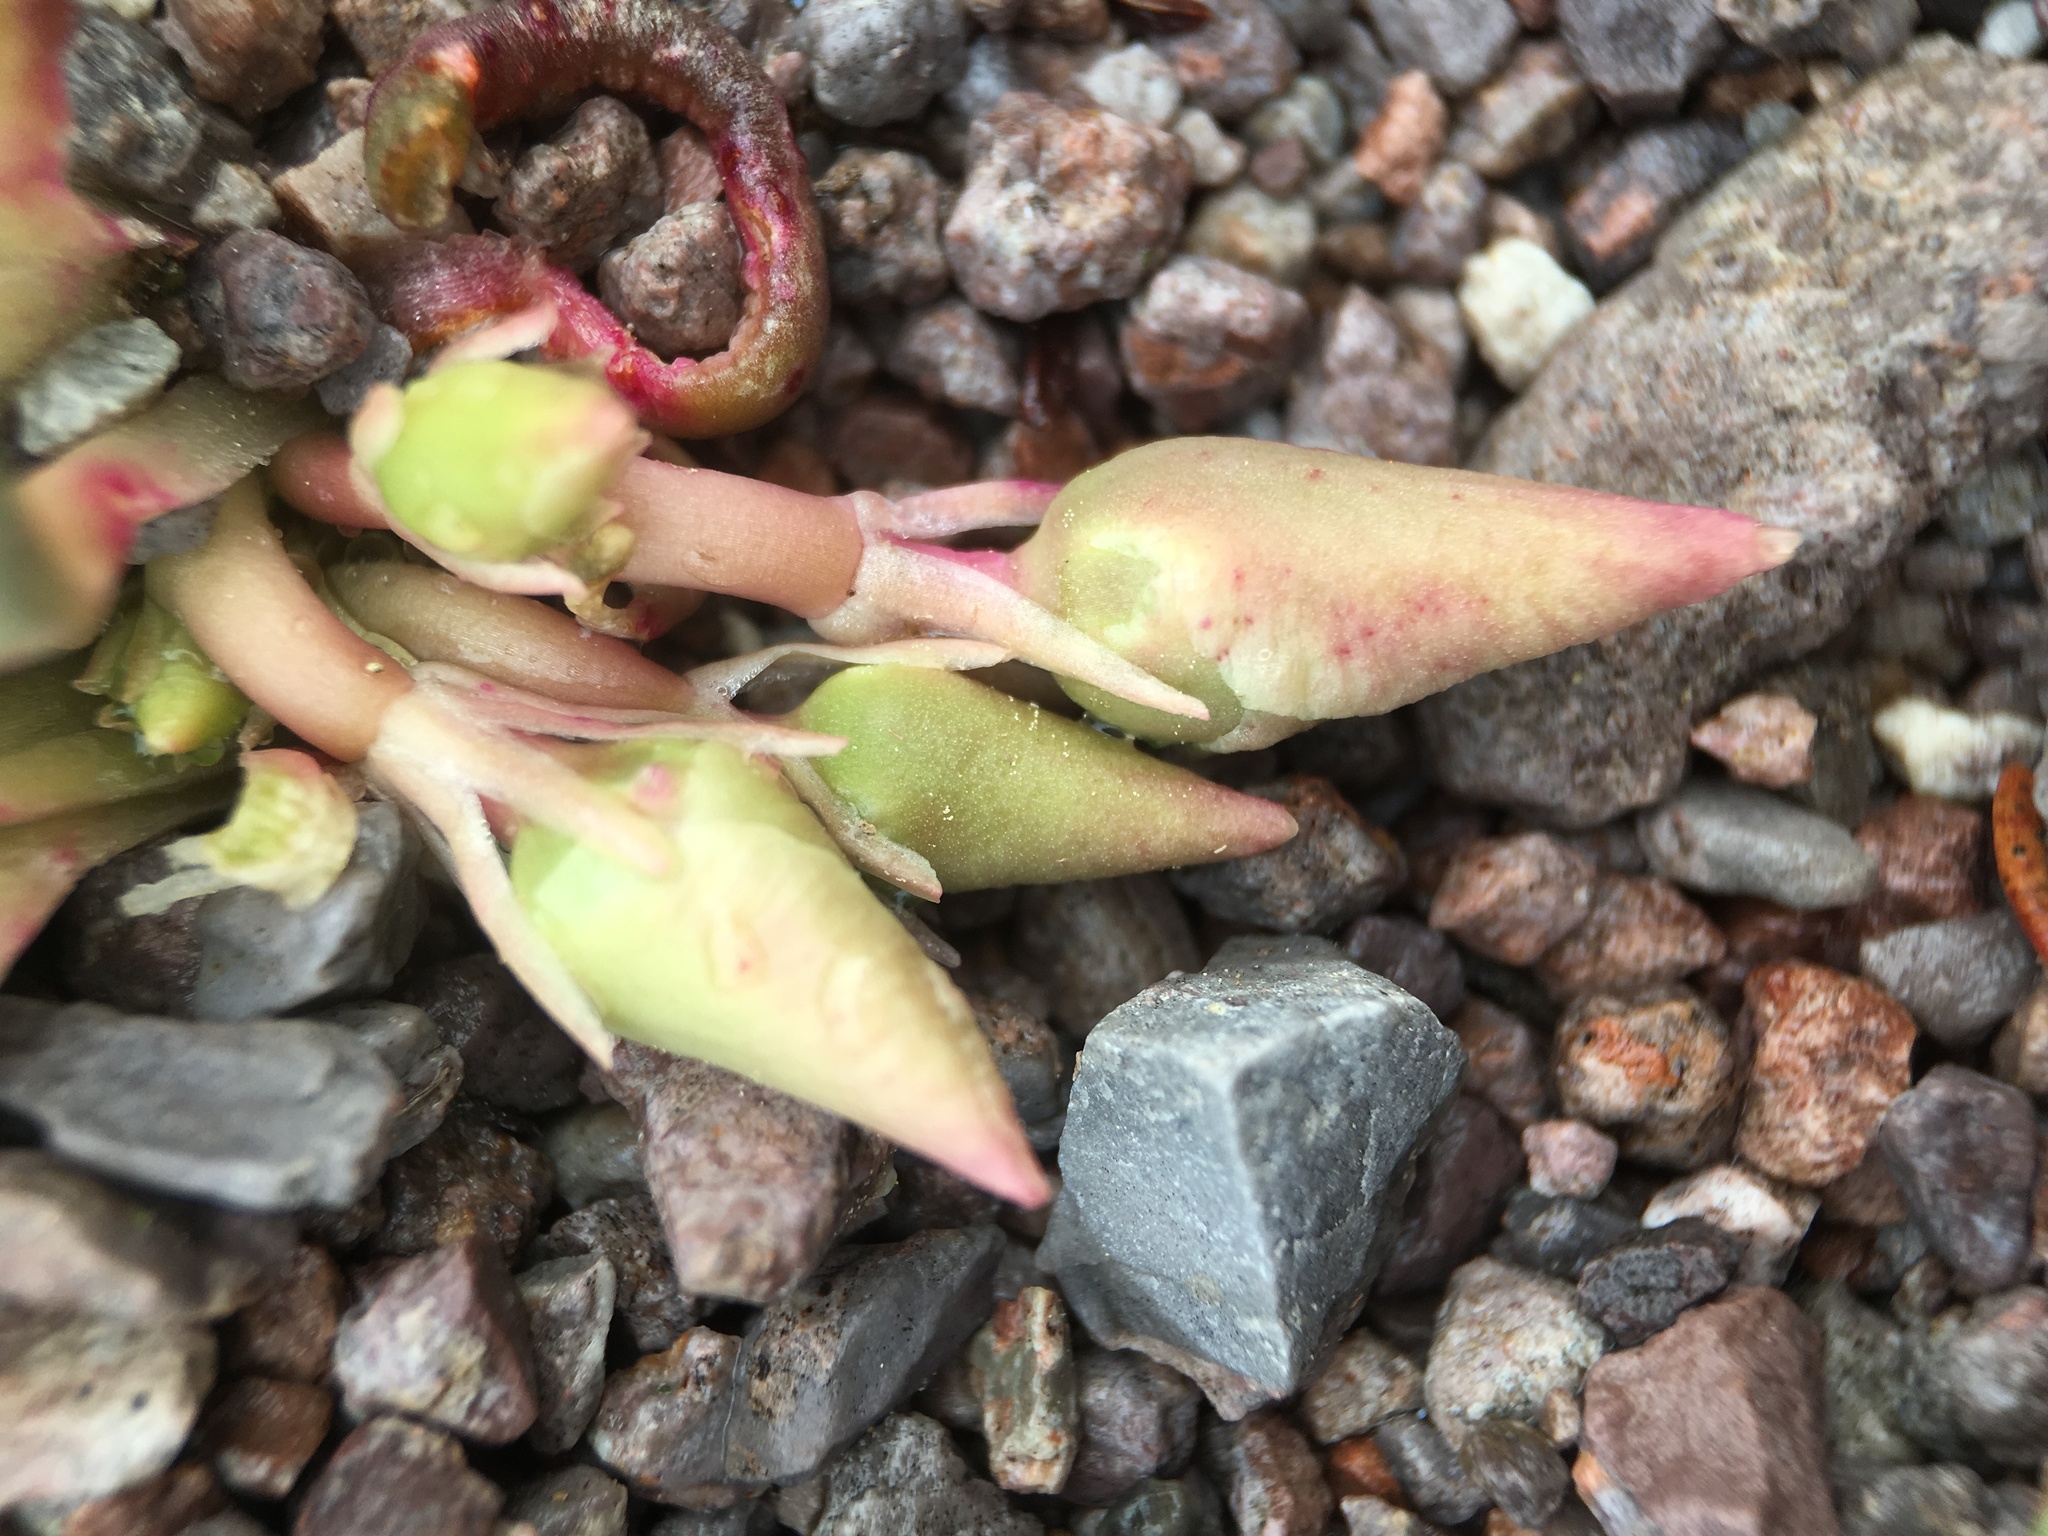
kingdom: Plantae
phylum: Tracheophyta
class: Magnoliopsida
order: Caryophyllales
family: Montiaceae
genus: Lewisia
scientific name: Lewisia rediviva
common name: Bitter-root
